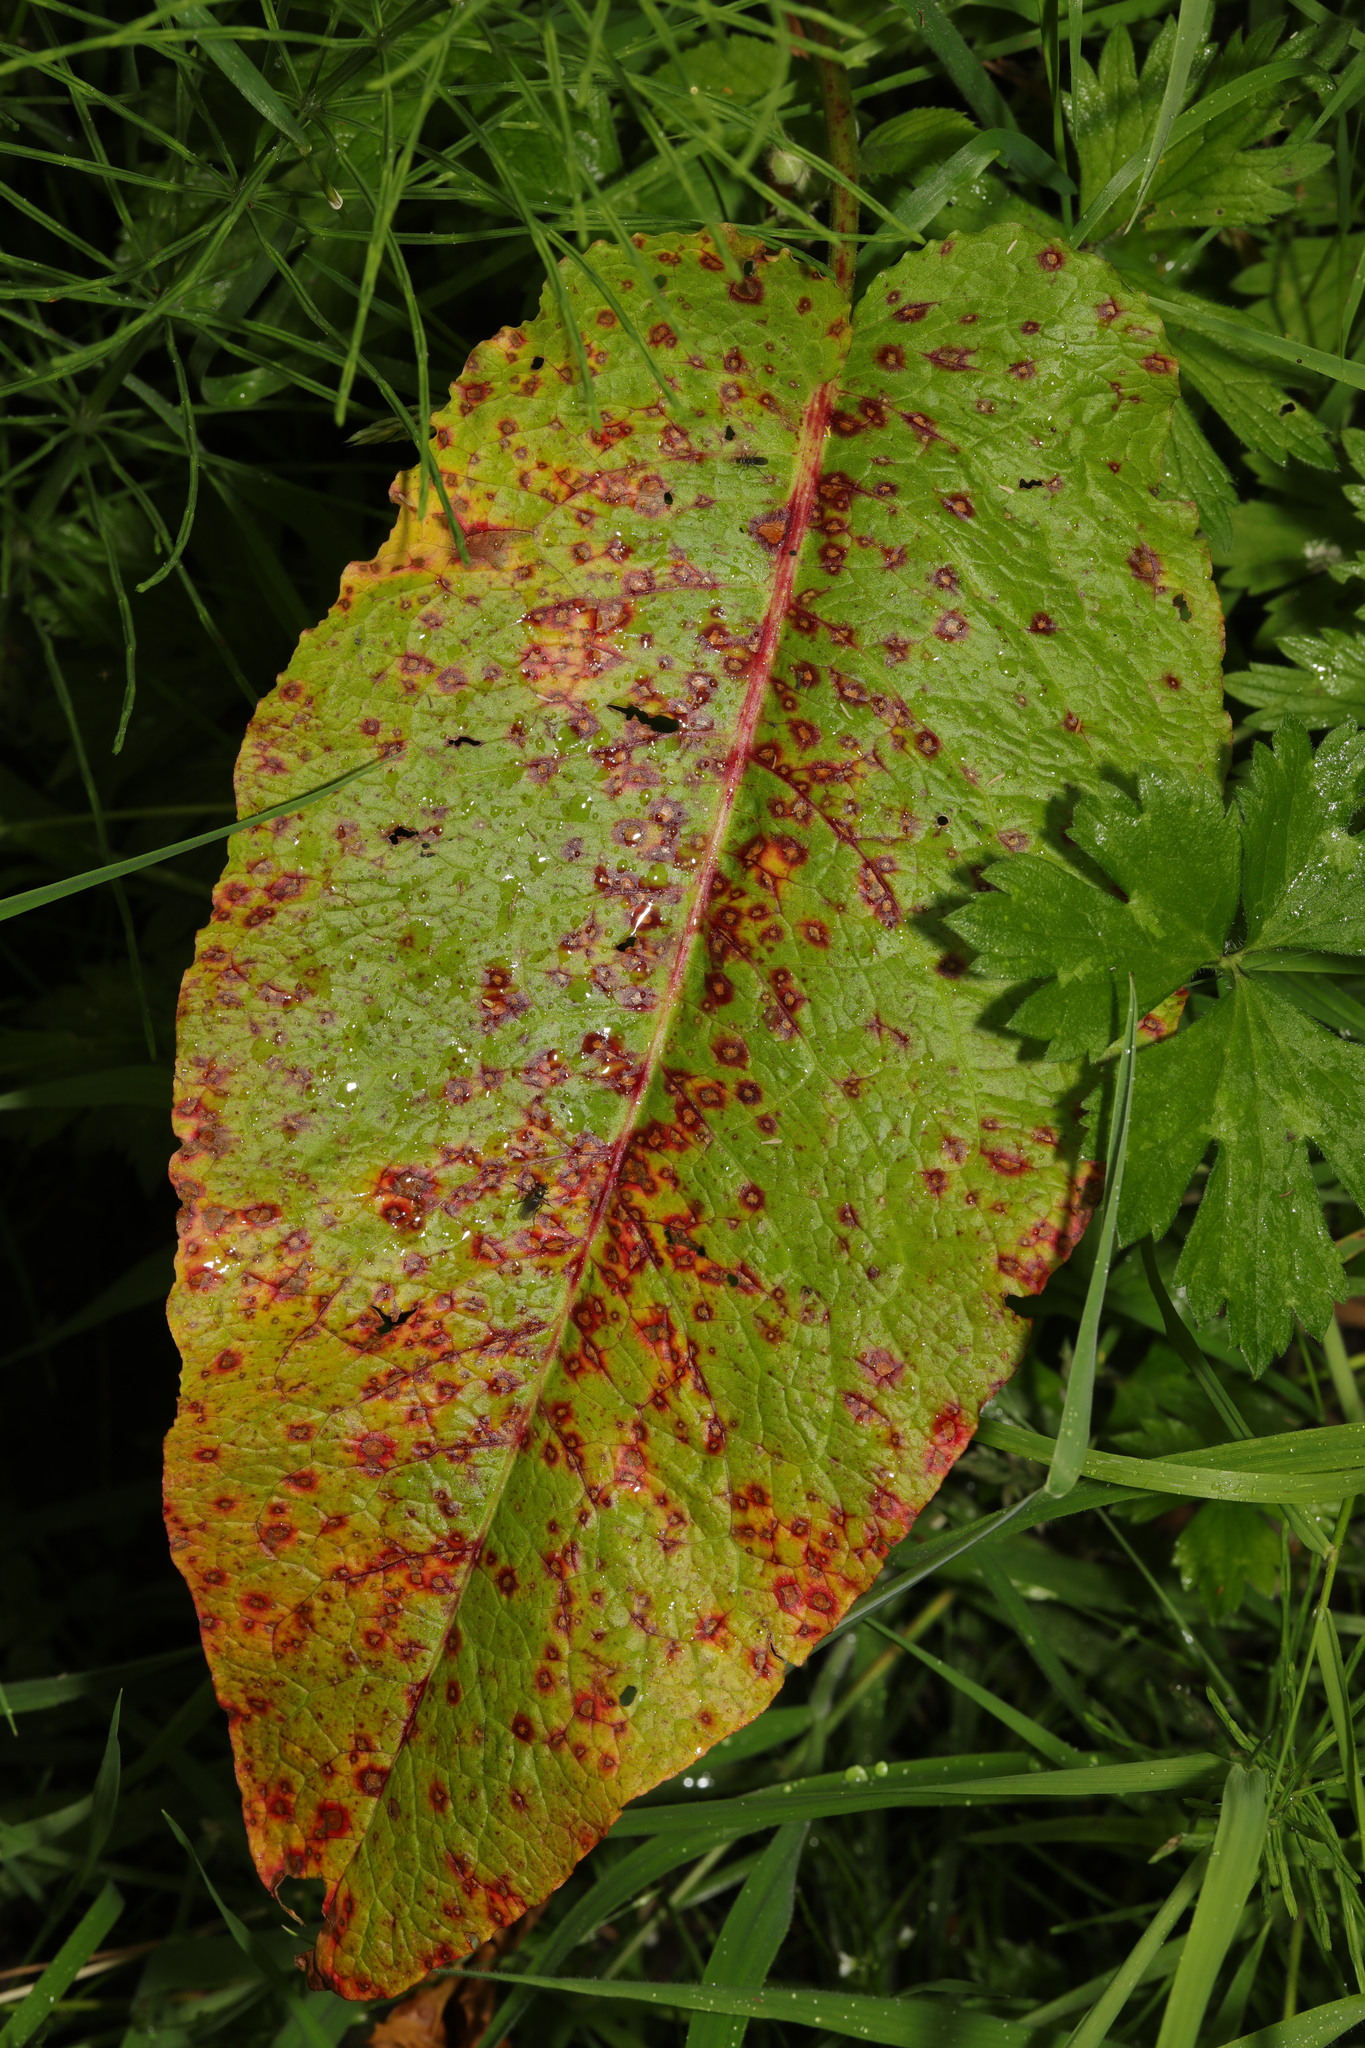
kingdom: Plantae
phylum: Tracheophyta
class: Magnoliopsida
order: Caryophyllales
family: Polygonaceae
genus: Rumex
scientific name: Rumex obtusifolius
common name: Bitter dock
